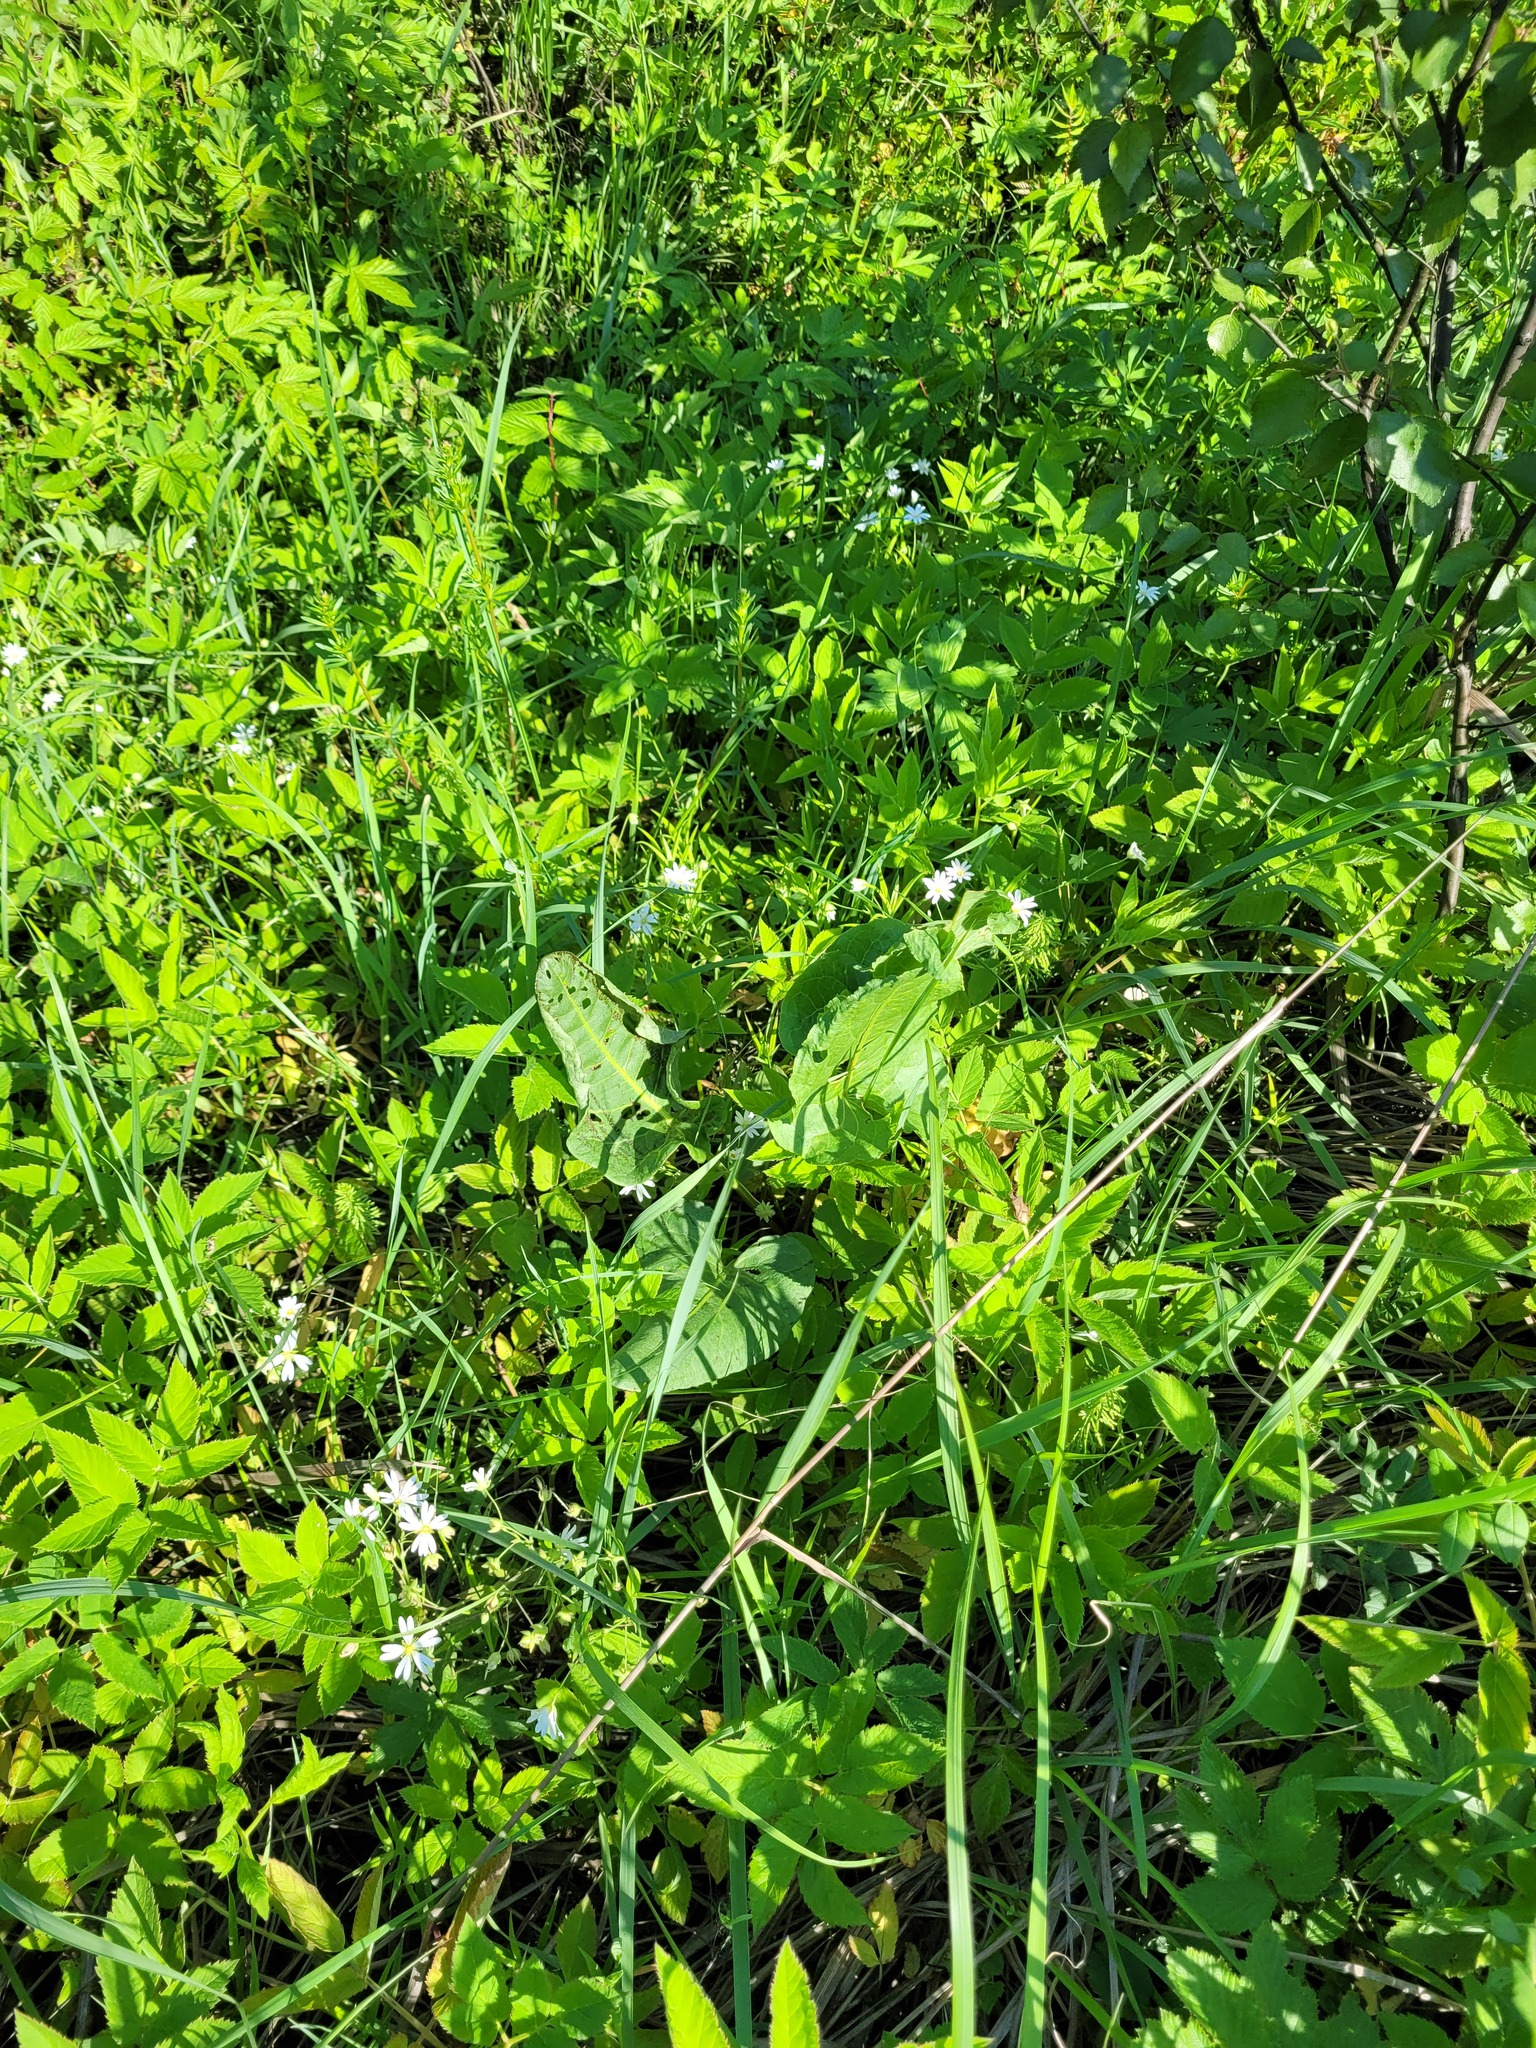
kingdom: Plantae
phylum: Tracheophyta
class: Magnoliopsida
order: Caryophyllales
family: Polygonaceae
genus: Rumex
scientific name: Rumex confertus
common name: Russian dock
